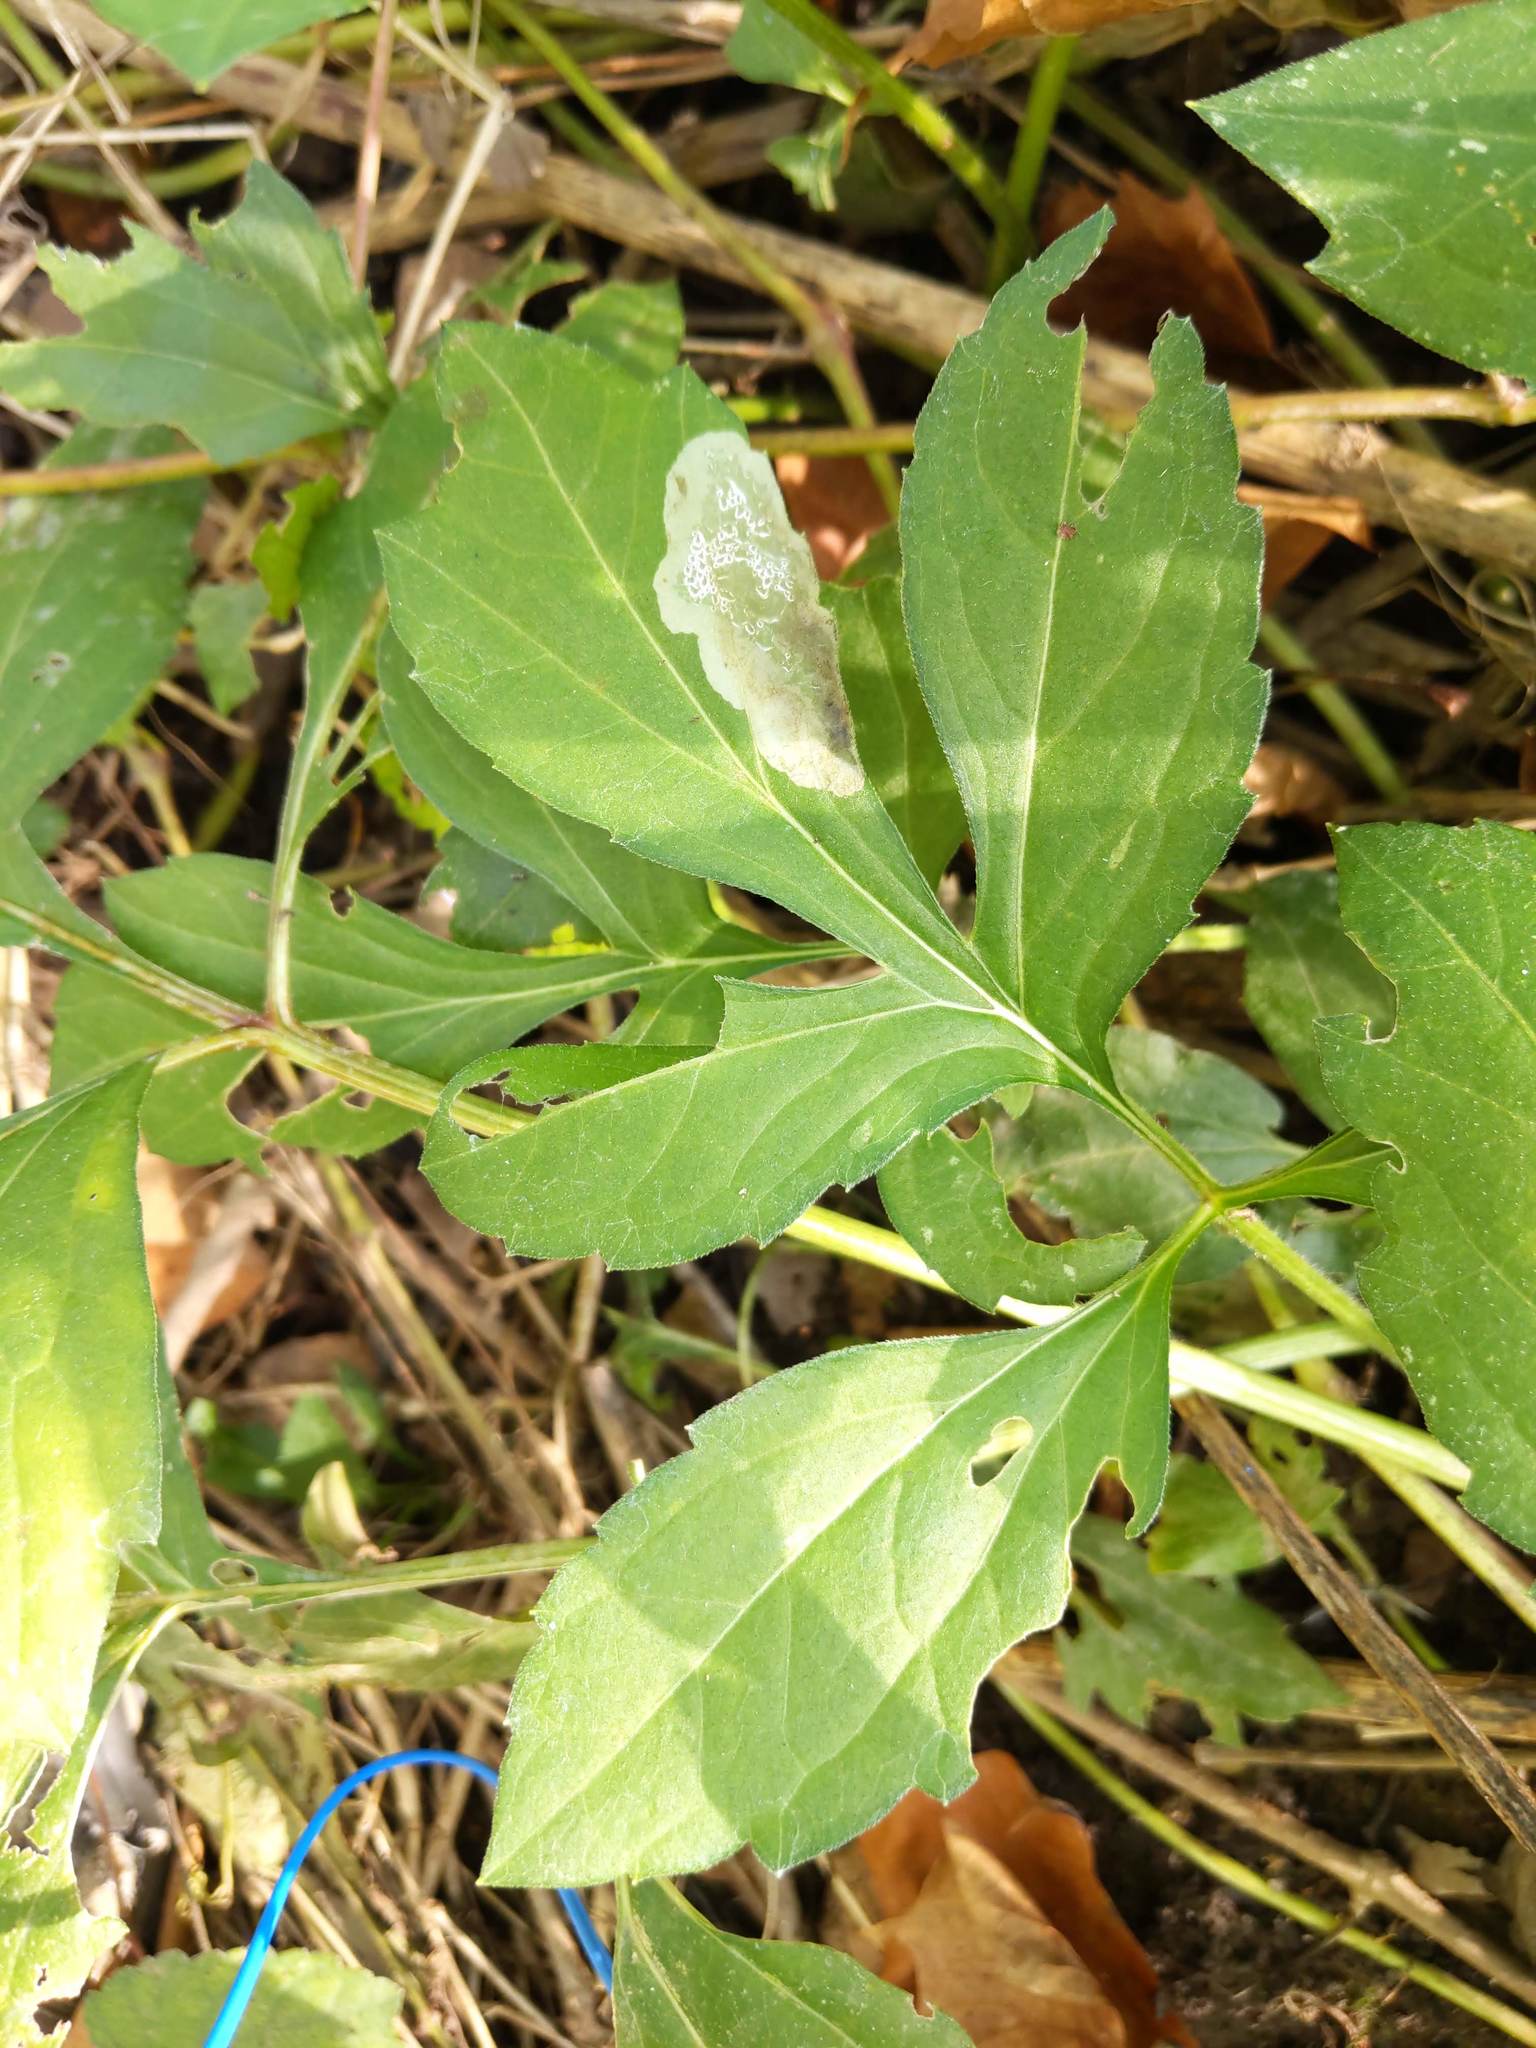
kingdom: Plantae
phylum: Tracheophyta
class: Magnoliopsida
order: Asterales
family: Asteraceae
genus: Rudbeckia
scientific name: Rudbeckia laciniata
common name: Coneflower
